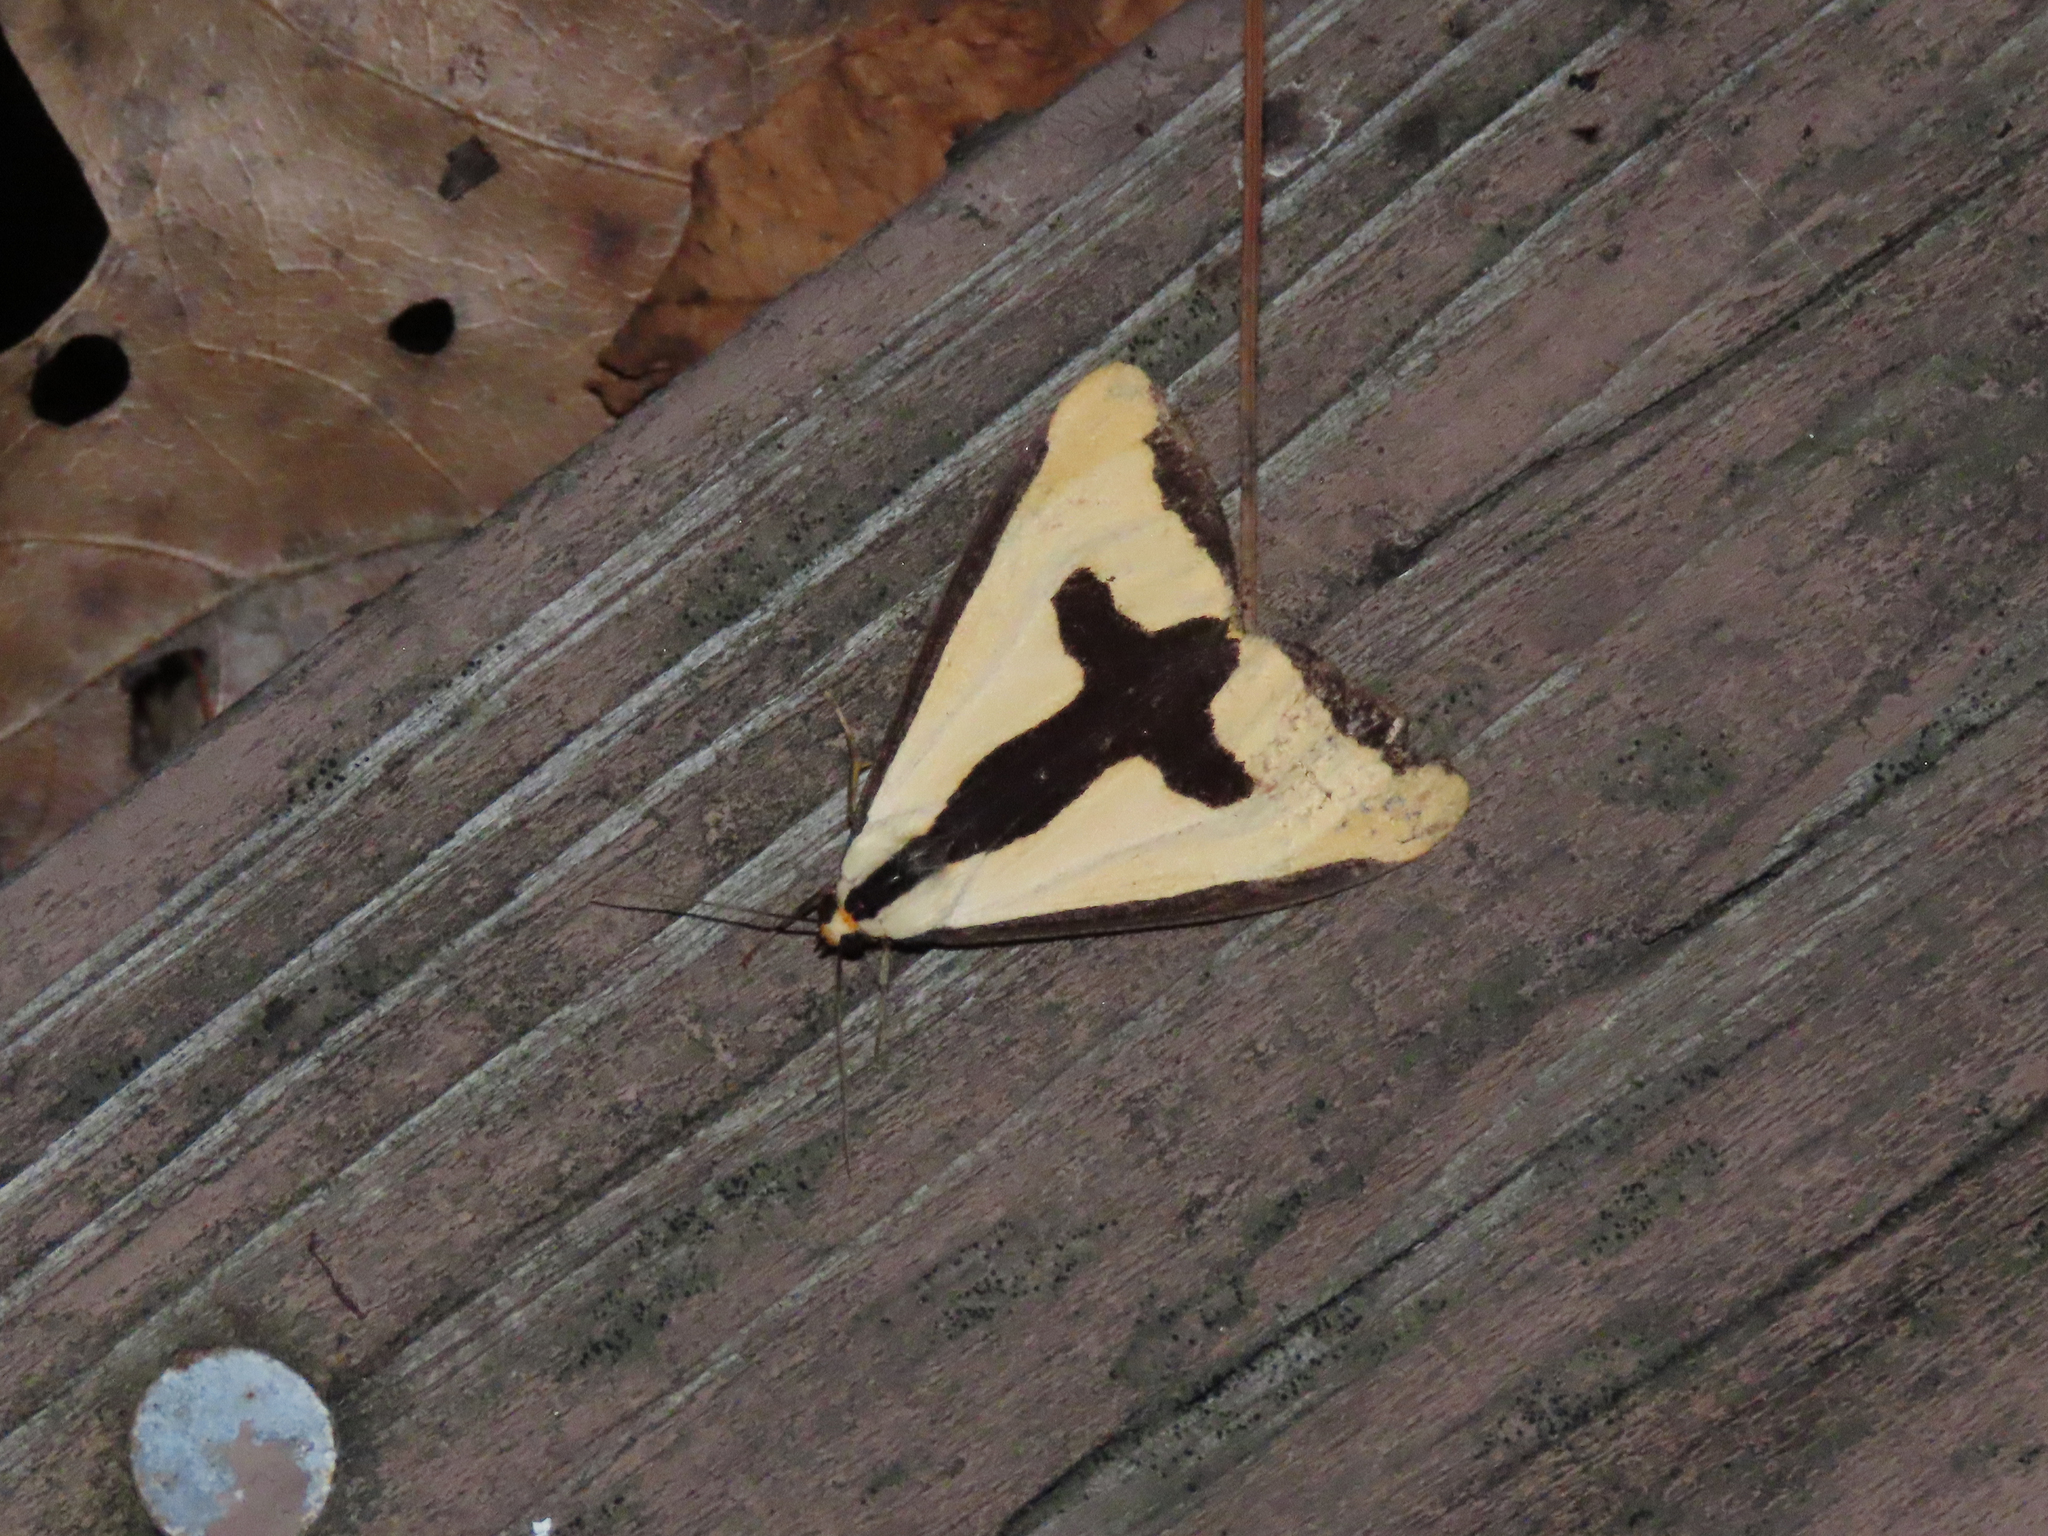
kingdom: Animalia
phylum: Arthropoda
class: Insecta
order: Lepidoptera
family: Erebidae
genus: Haploa
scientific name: Haploa clymene
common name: Clymene moth
